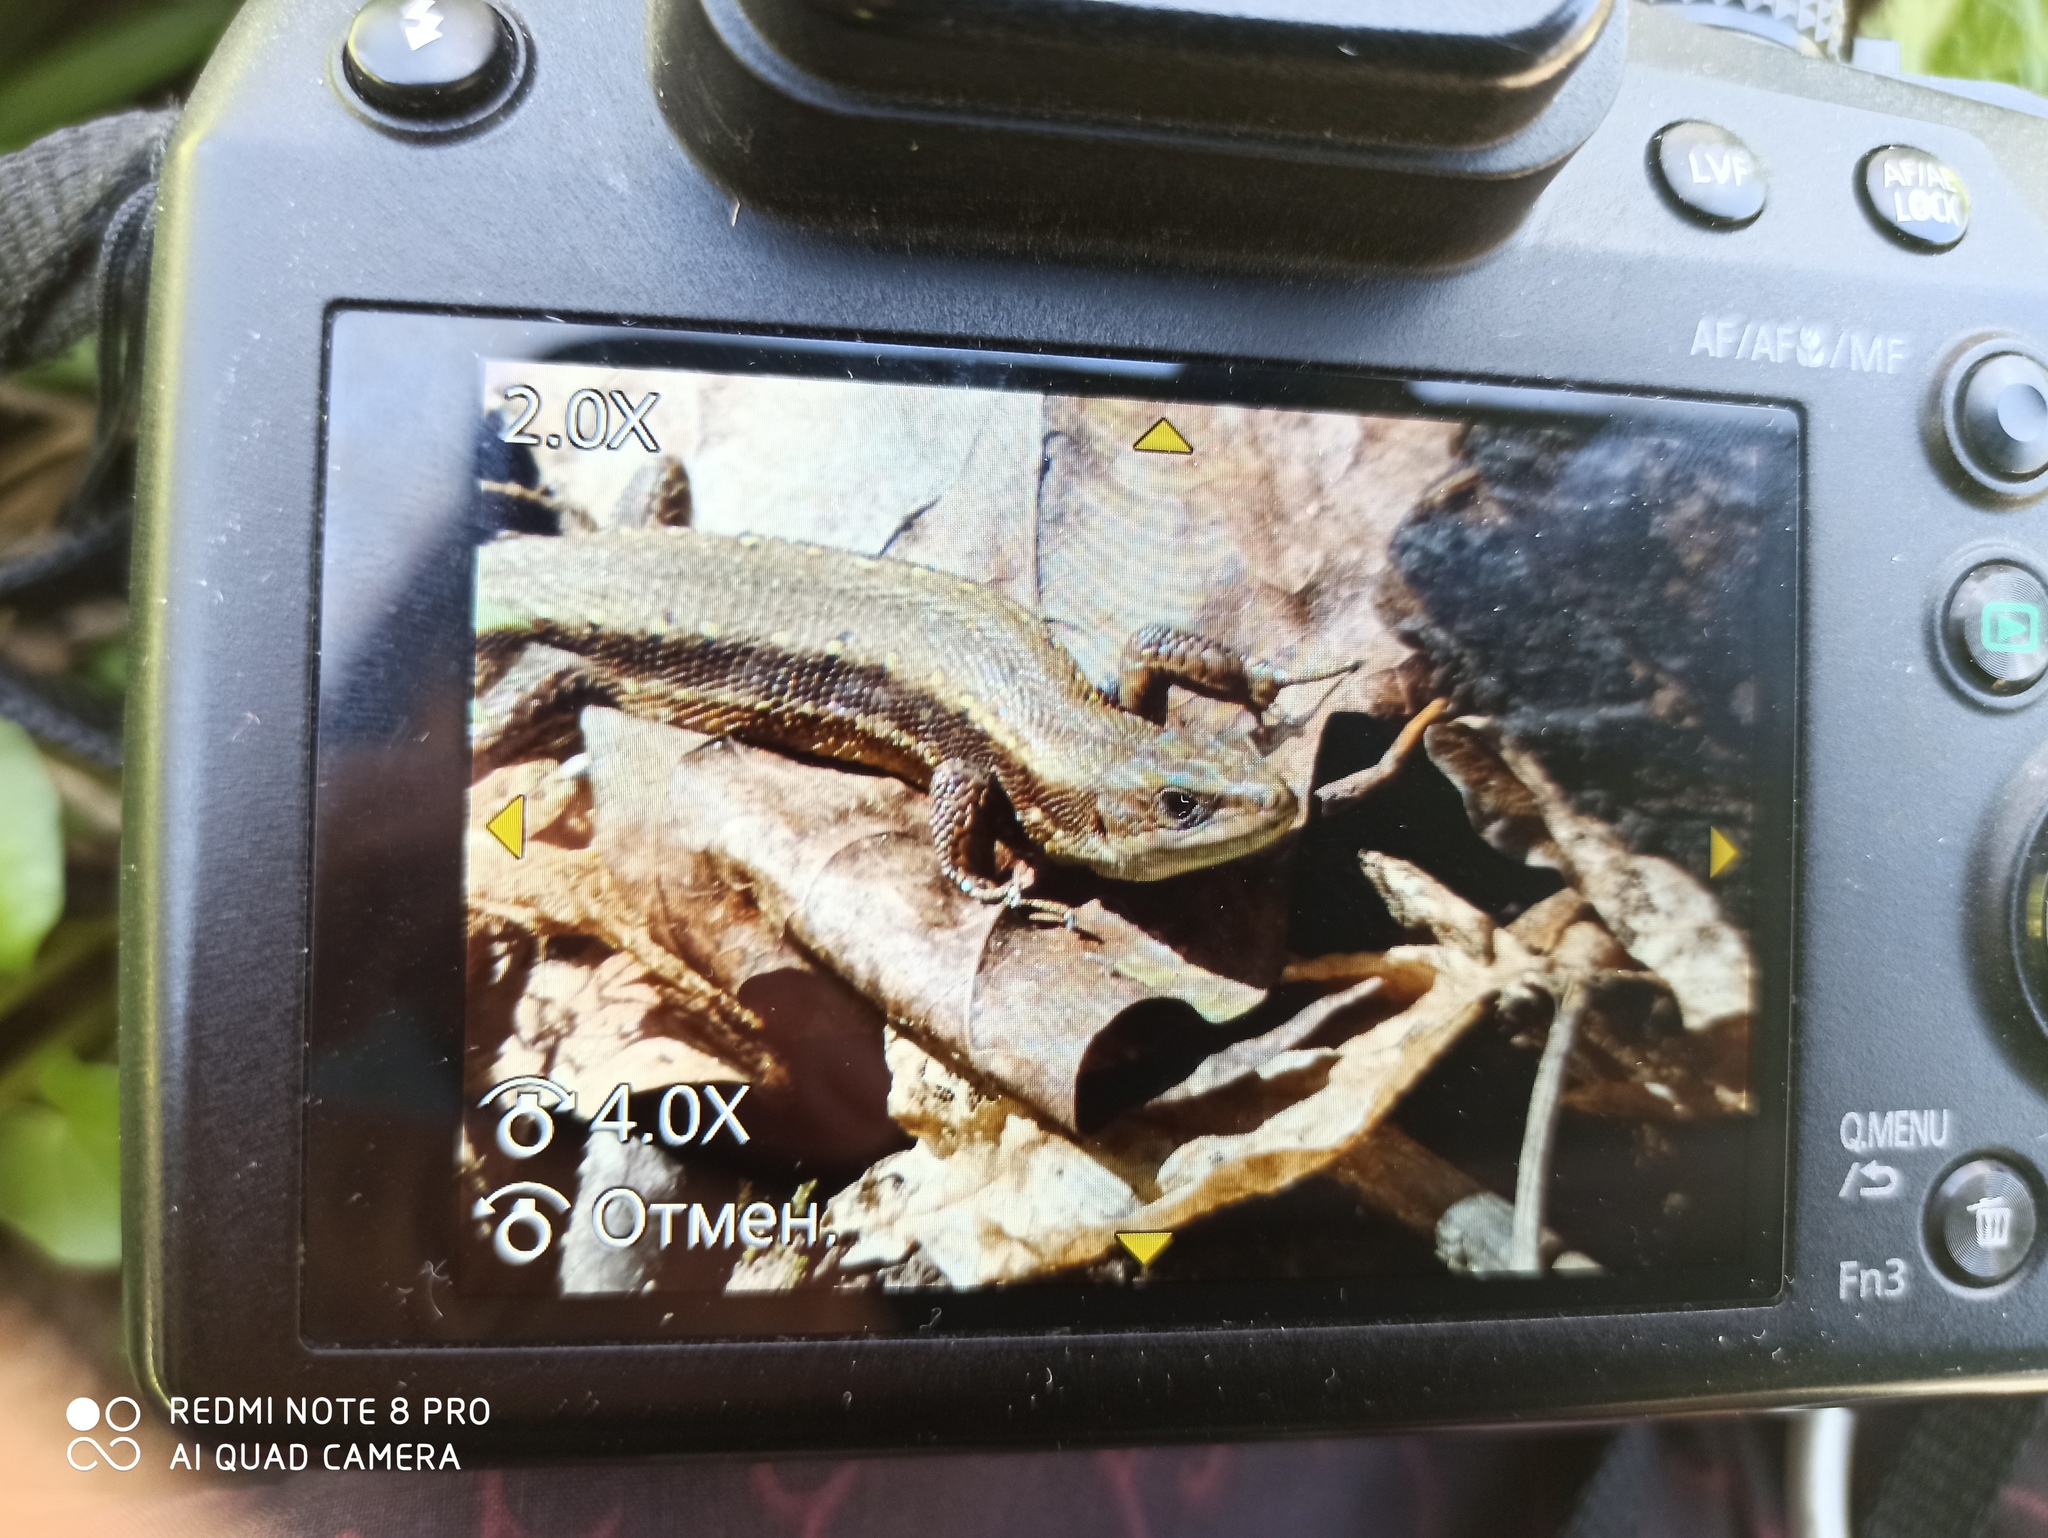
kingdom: Animalia
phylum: Chordata
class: Squamata
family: Lacertidae
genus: Zootoca
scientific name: Zootoca vivipara
